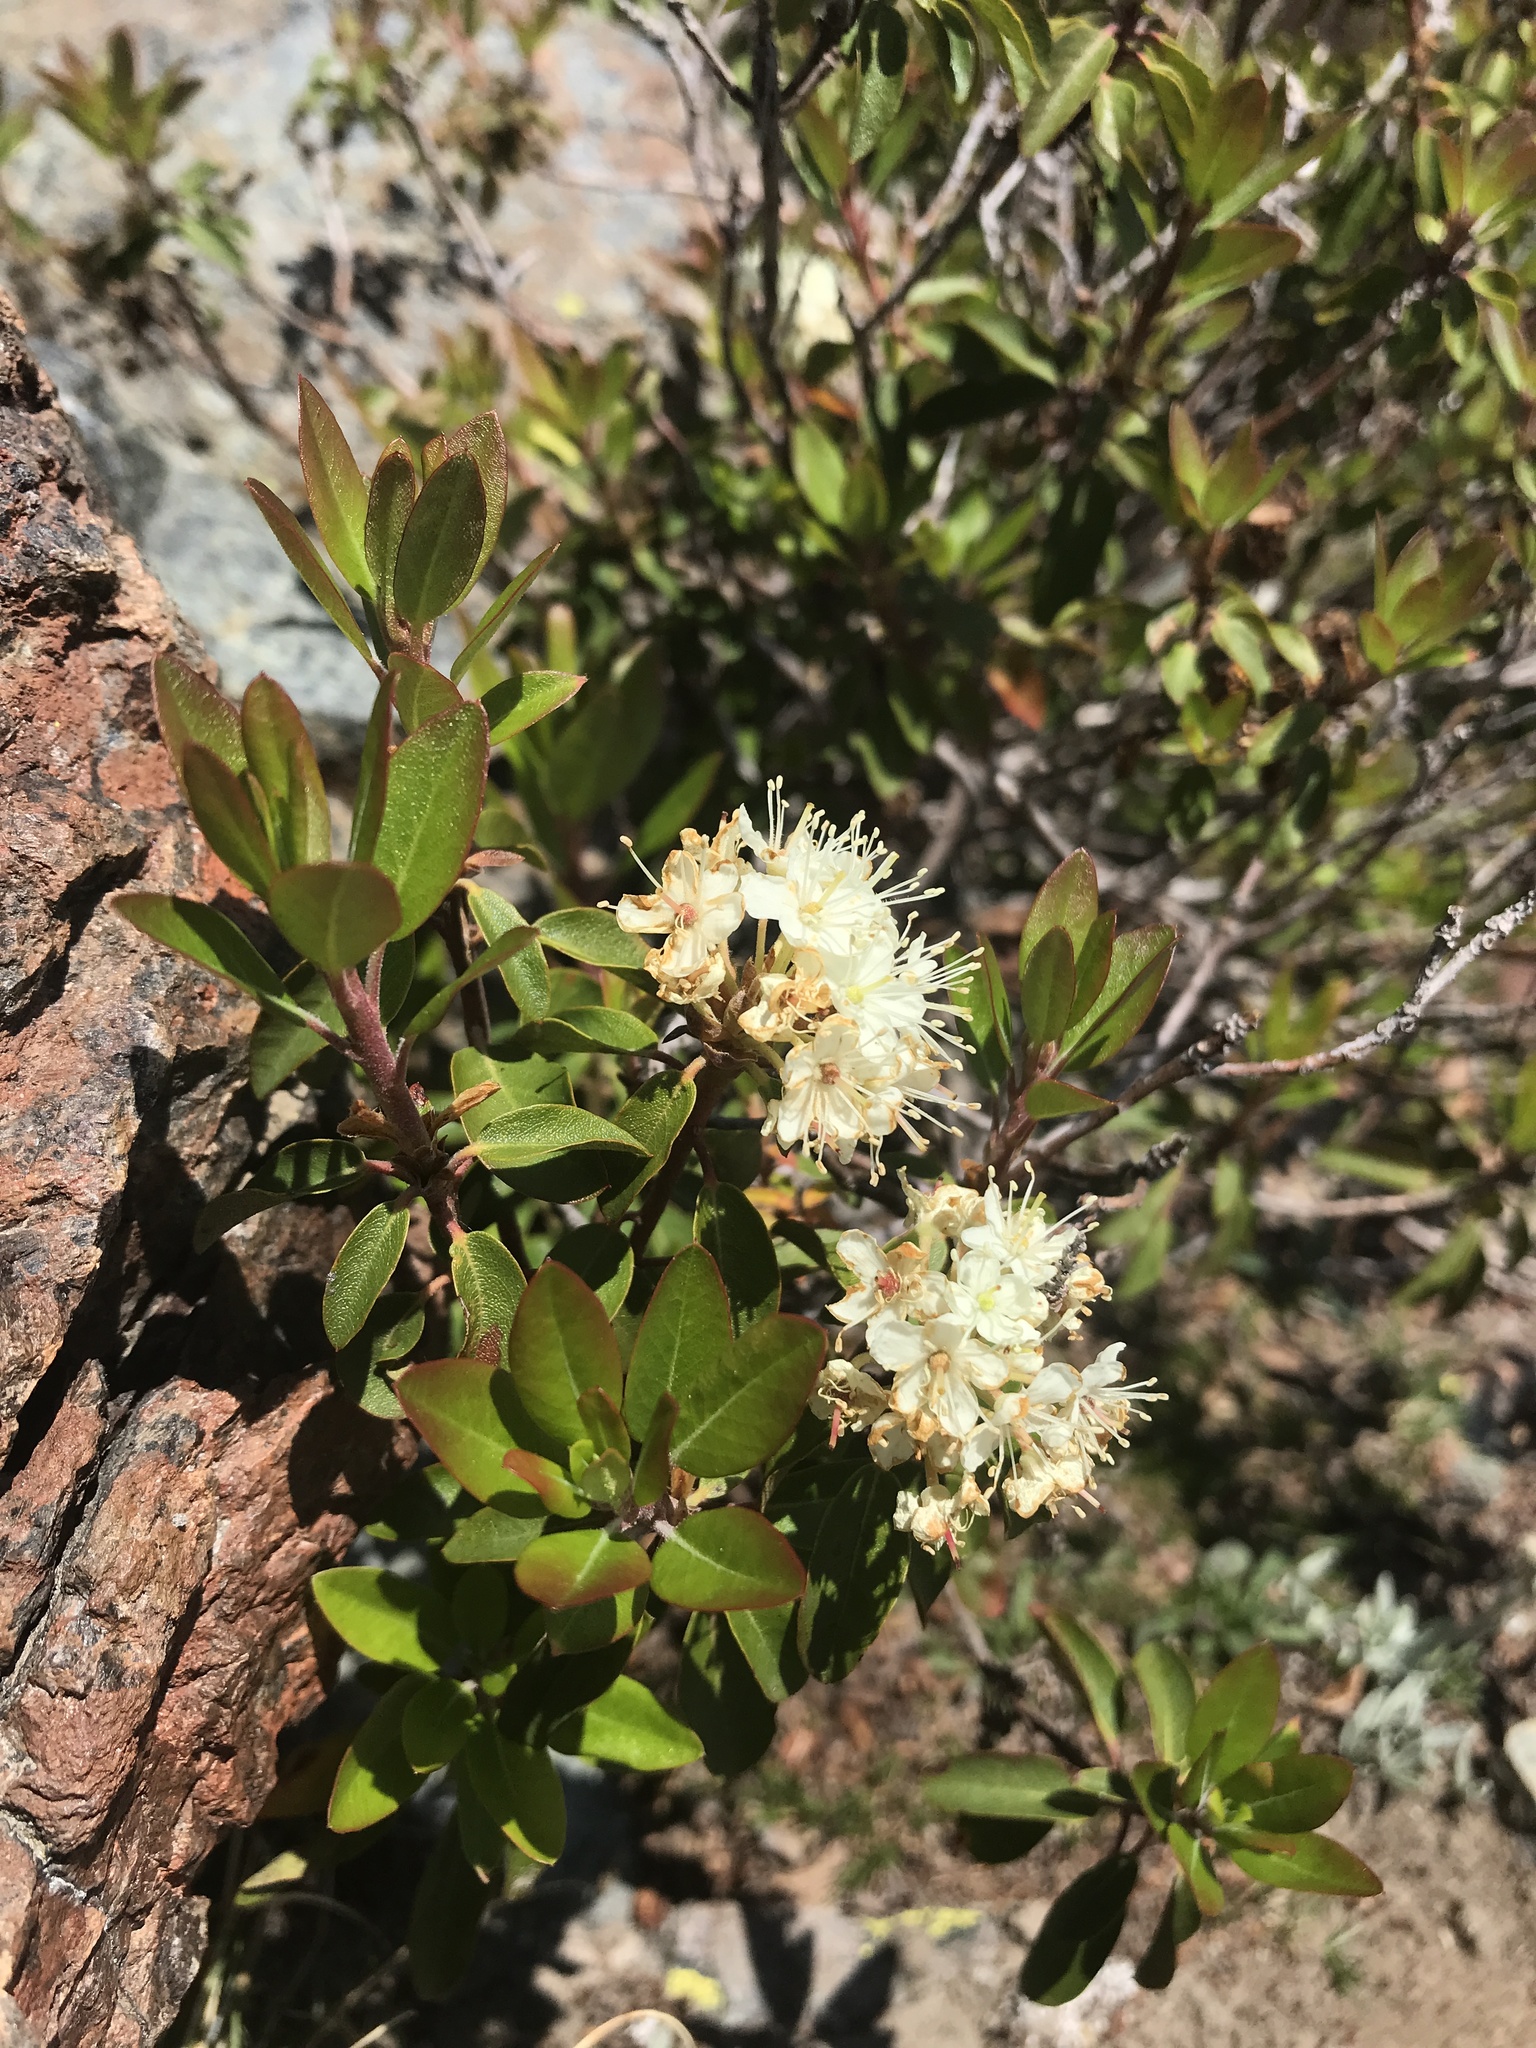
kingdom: Plantae
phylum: Tracheophyta
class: Magnoliopsida
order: Ericales
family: Ericaceae
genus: Rhododendron
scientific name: Rhododendron columbianum
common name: Western labrador tea
